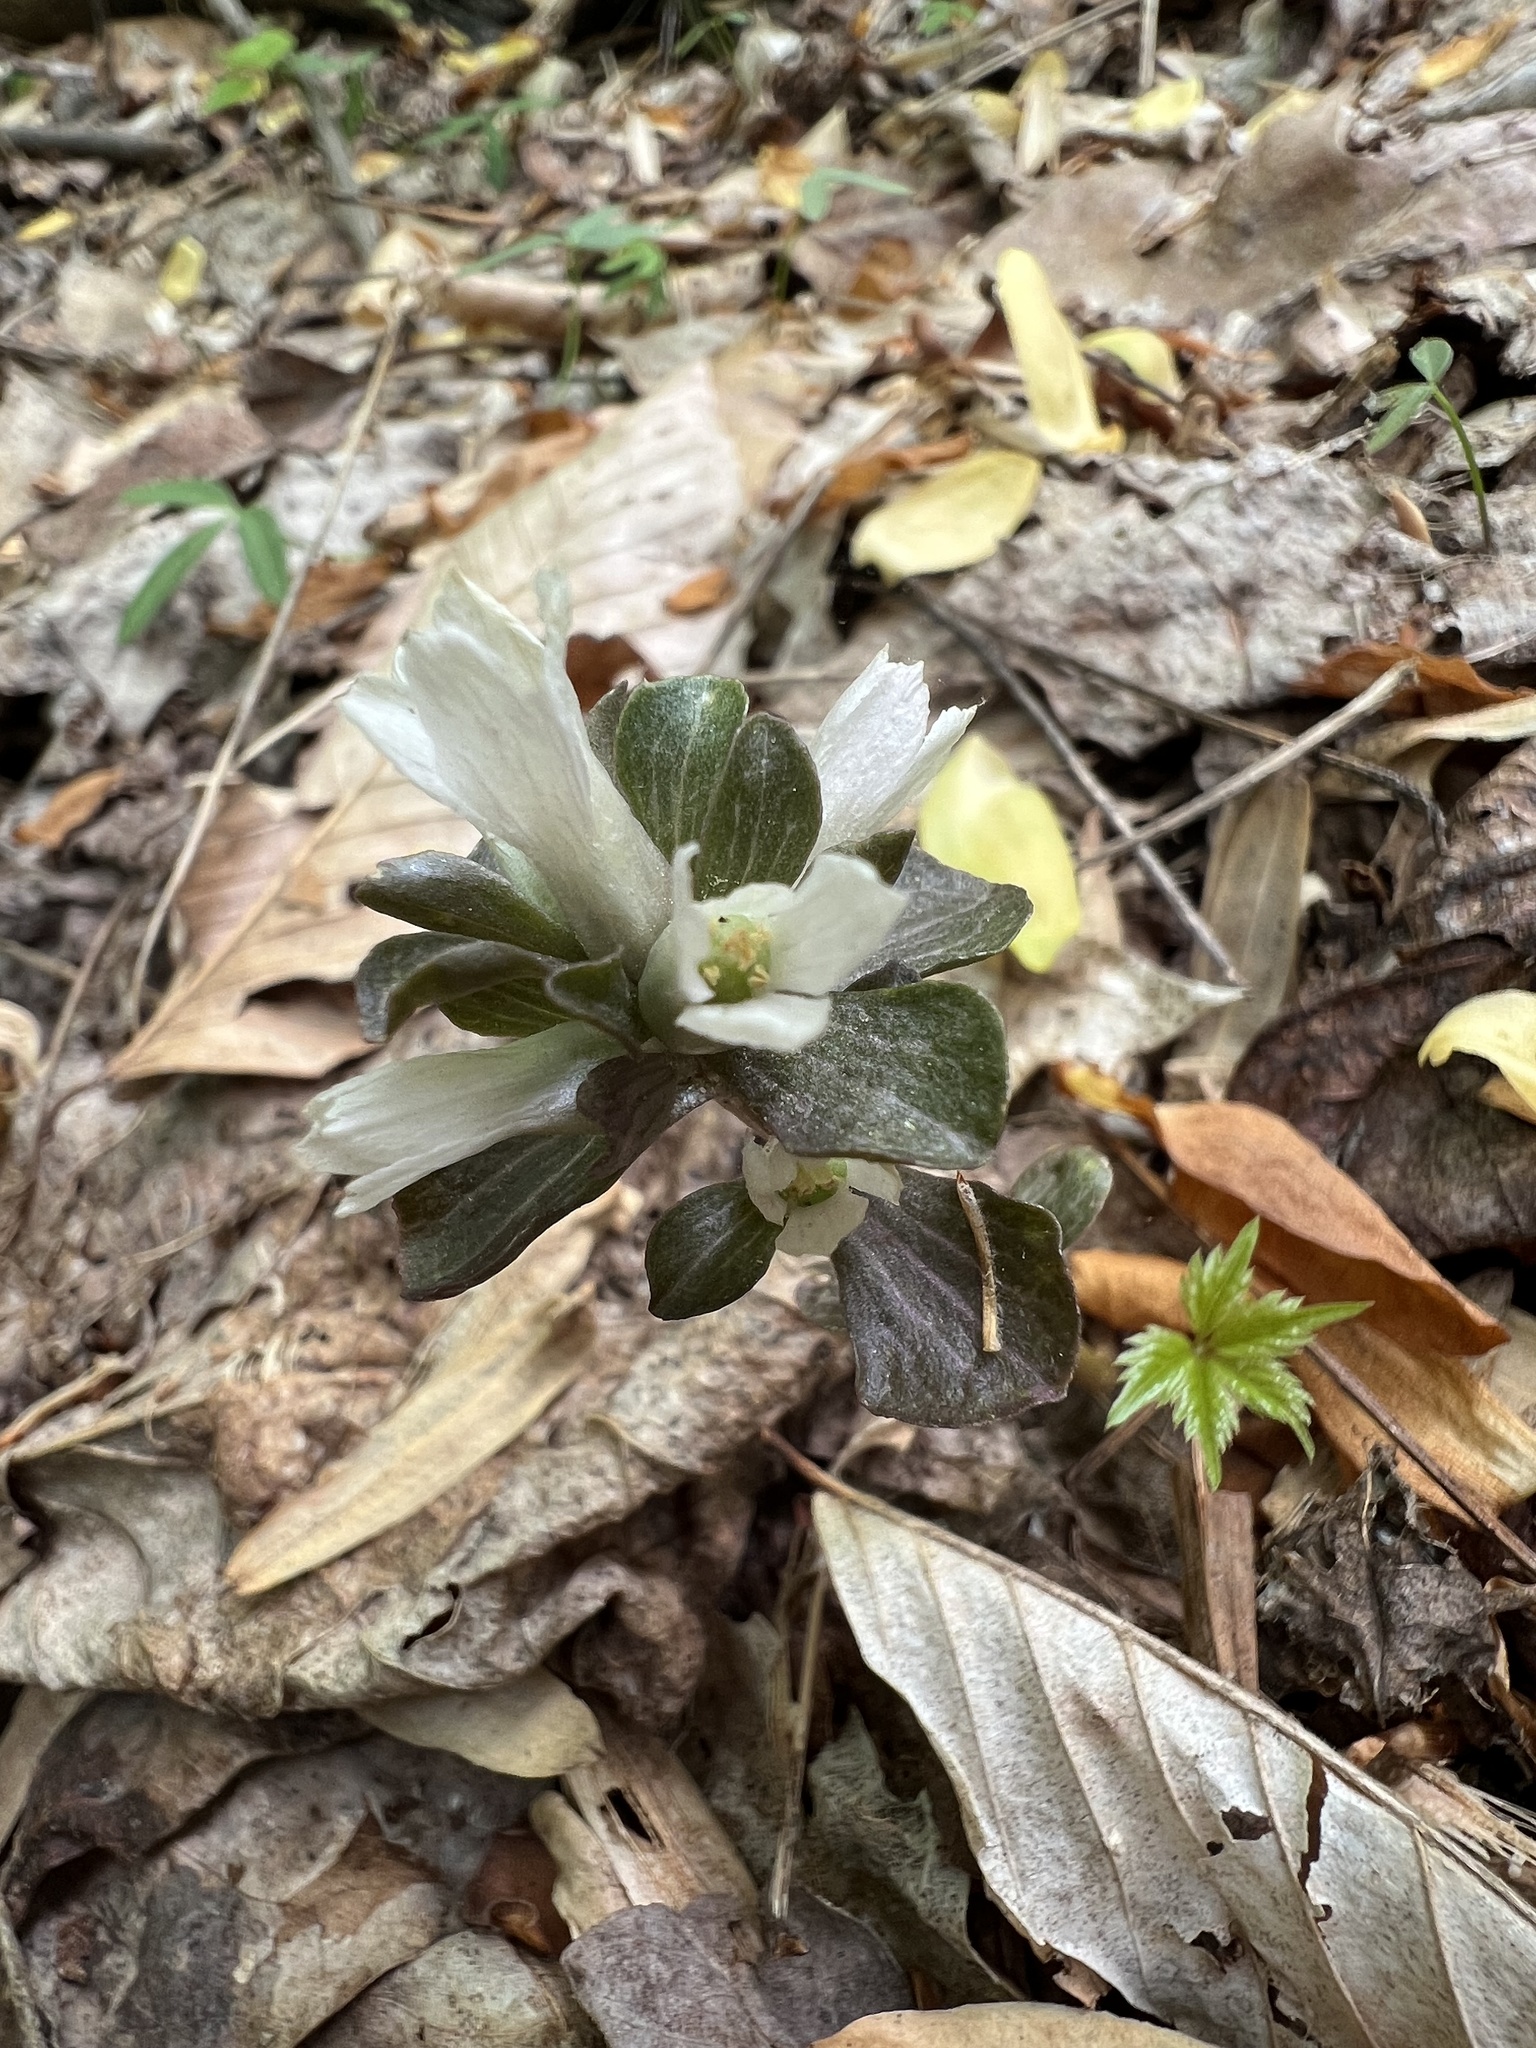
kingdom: Plantae
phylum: Tracheophyta
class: Magnoliopsida
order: Gentianales
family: Gentianaceae
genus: Obolaria
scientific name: Obolaria virginica
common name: Pennywort
